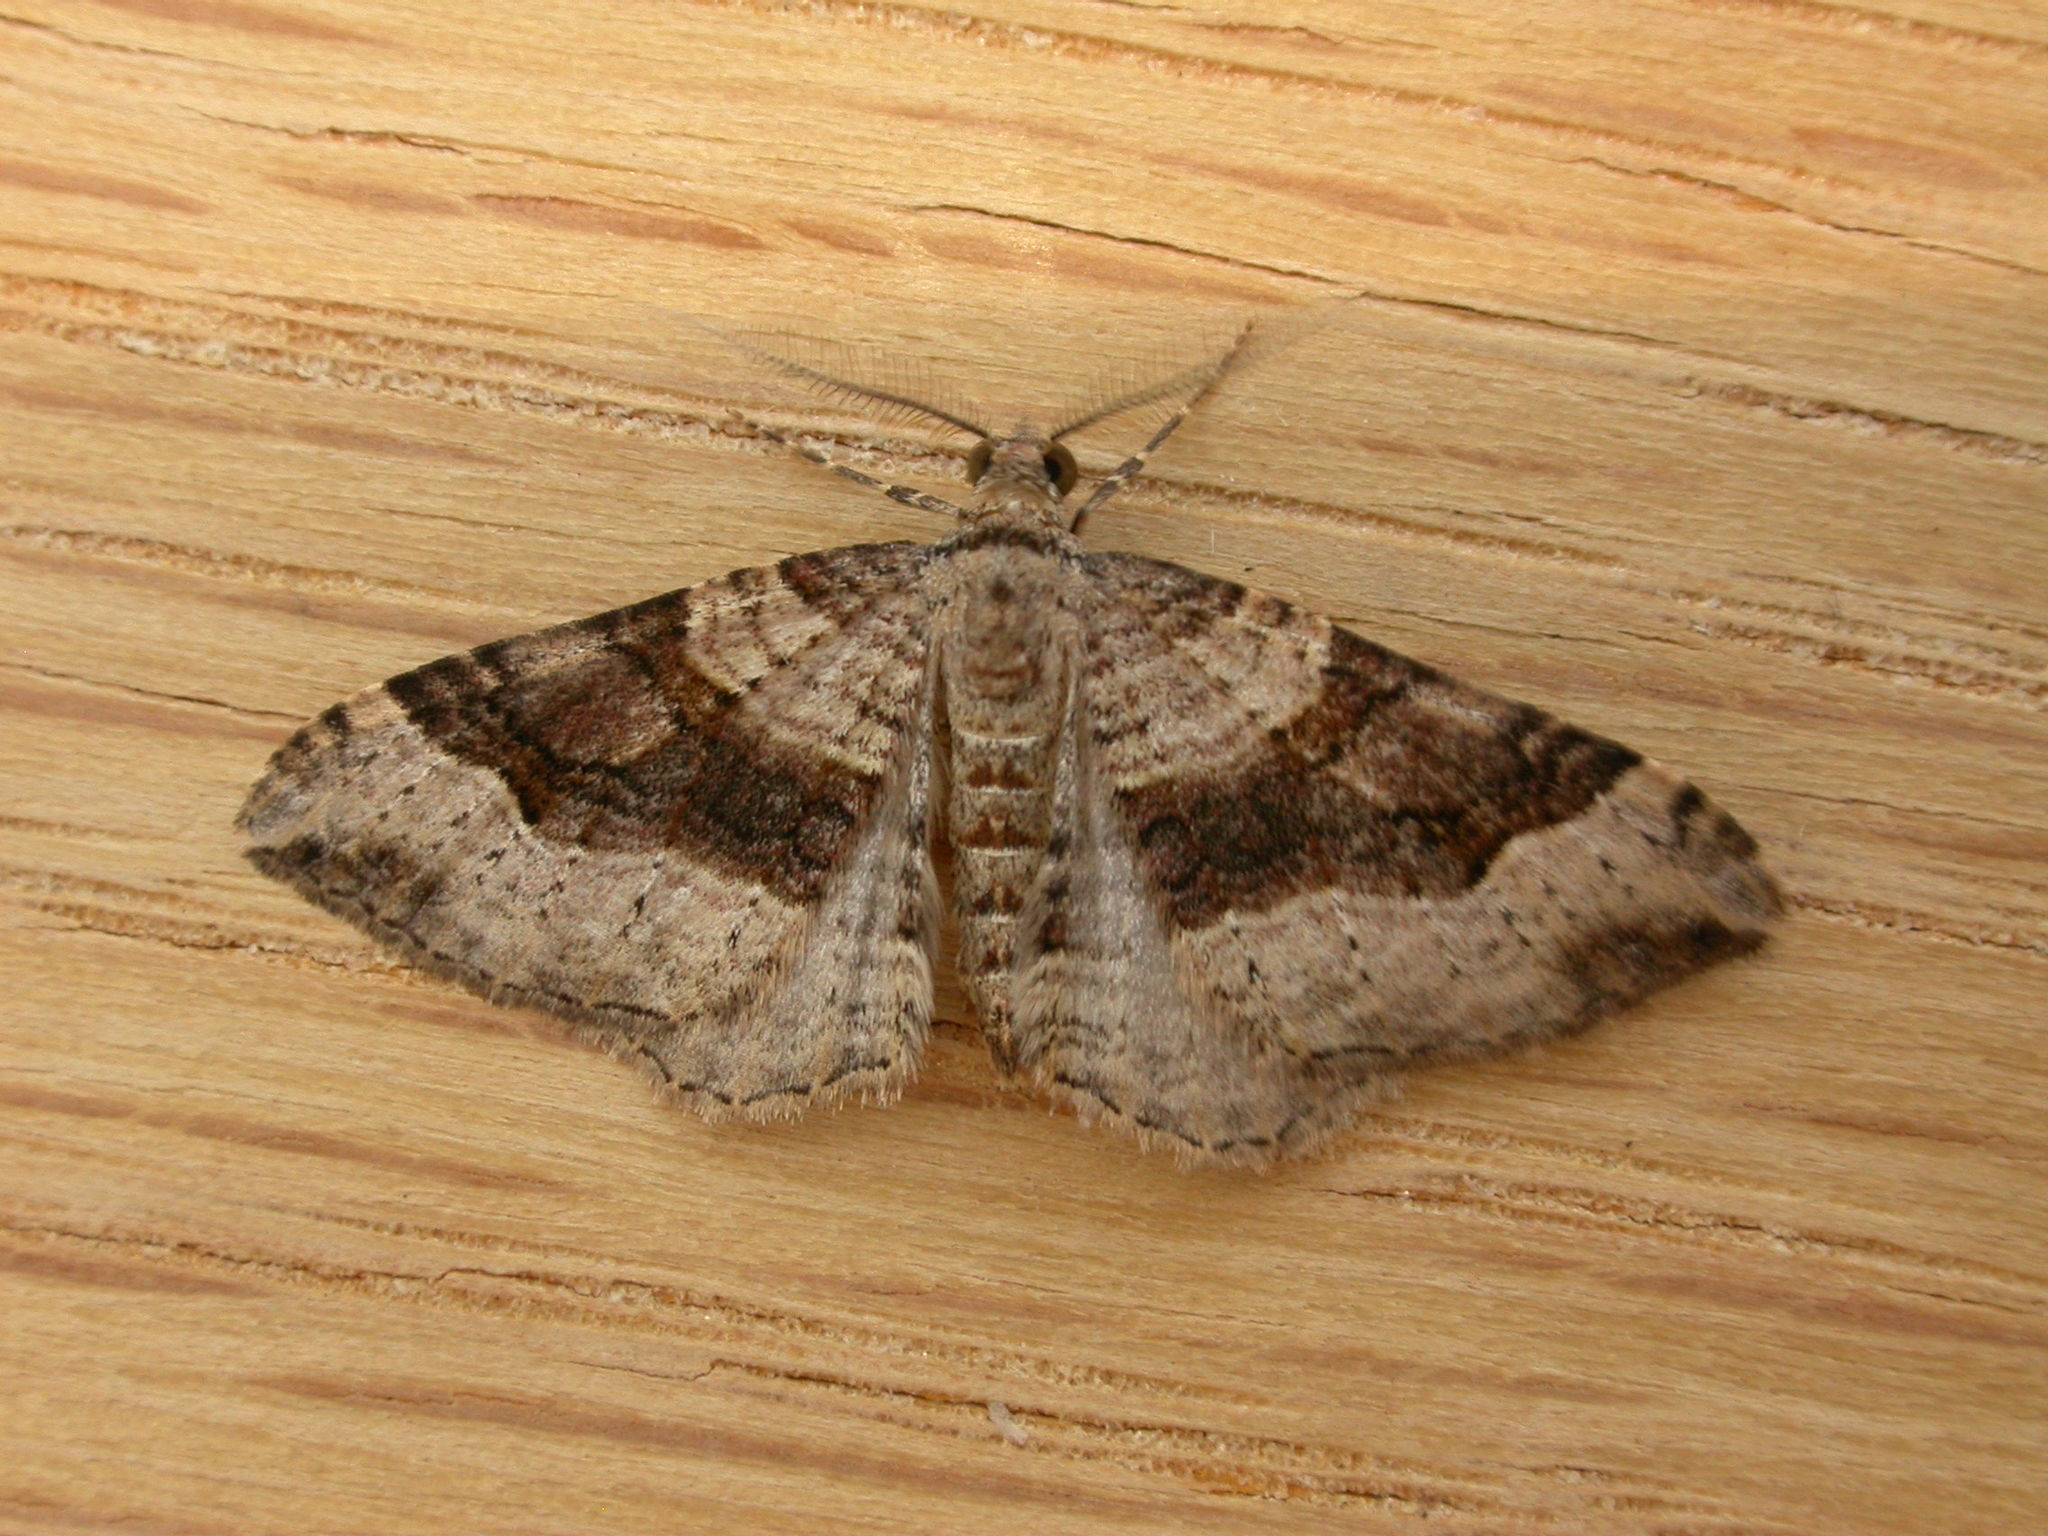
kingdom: Animalia
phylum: Arthropoda
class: Insecta
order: Lepidoptera
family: Geometridae
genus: Epyaxa
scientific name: Epyaxa subidaria
